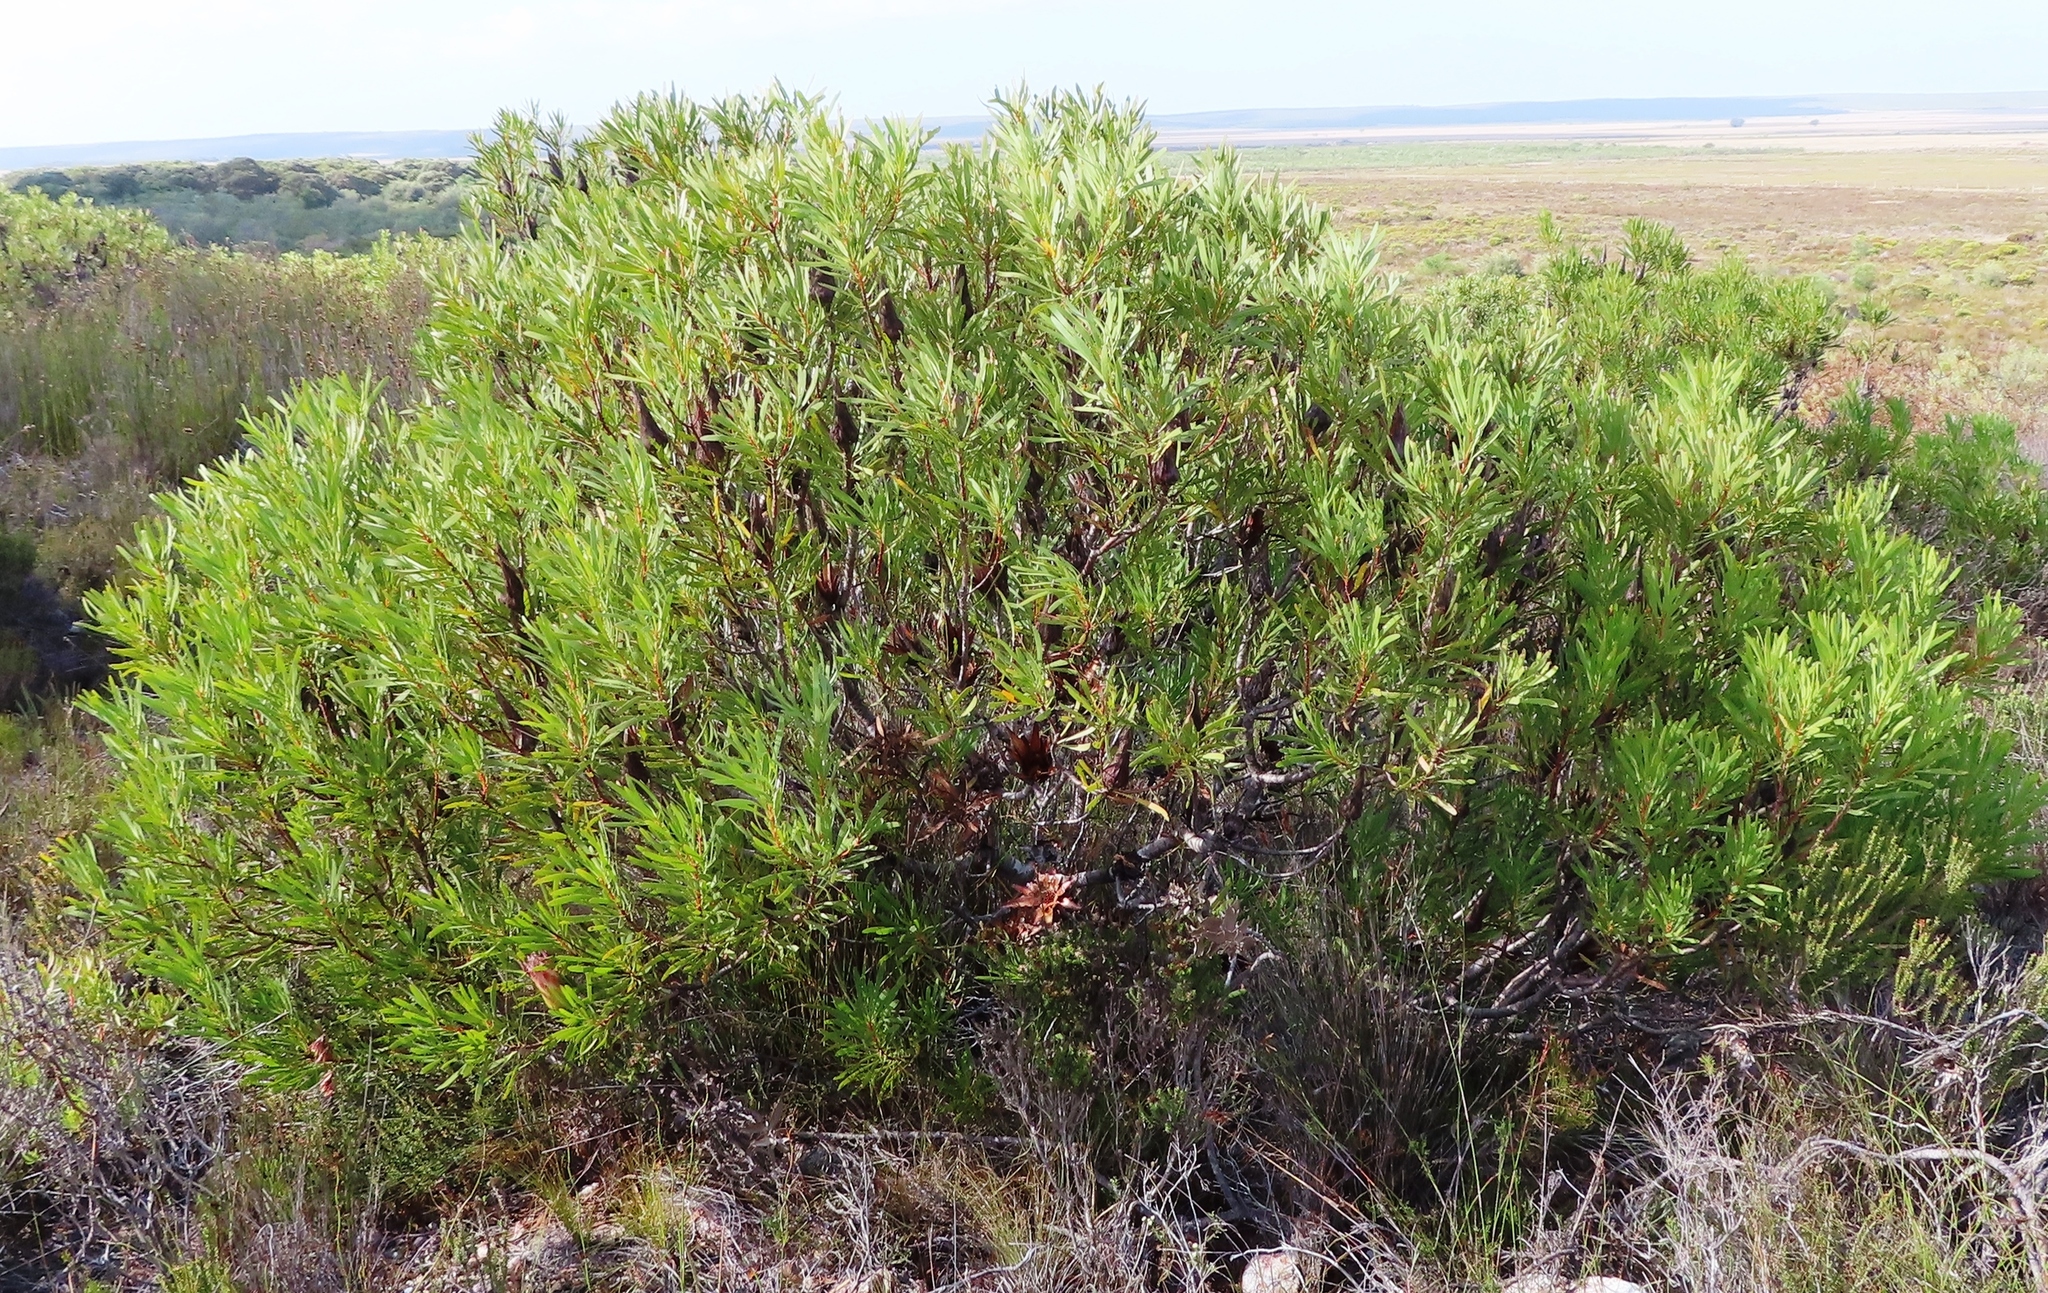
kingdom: Plantae
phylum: Tracheophyta
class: Magnoliopsida
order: Proteales
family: Proteaceae
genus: Protea
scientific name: Protea repens
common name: Sugarbush
